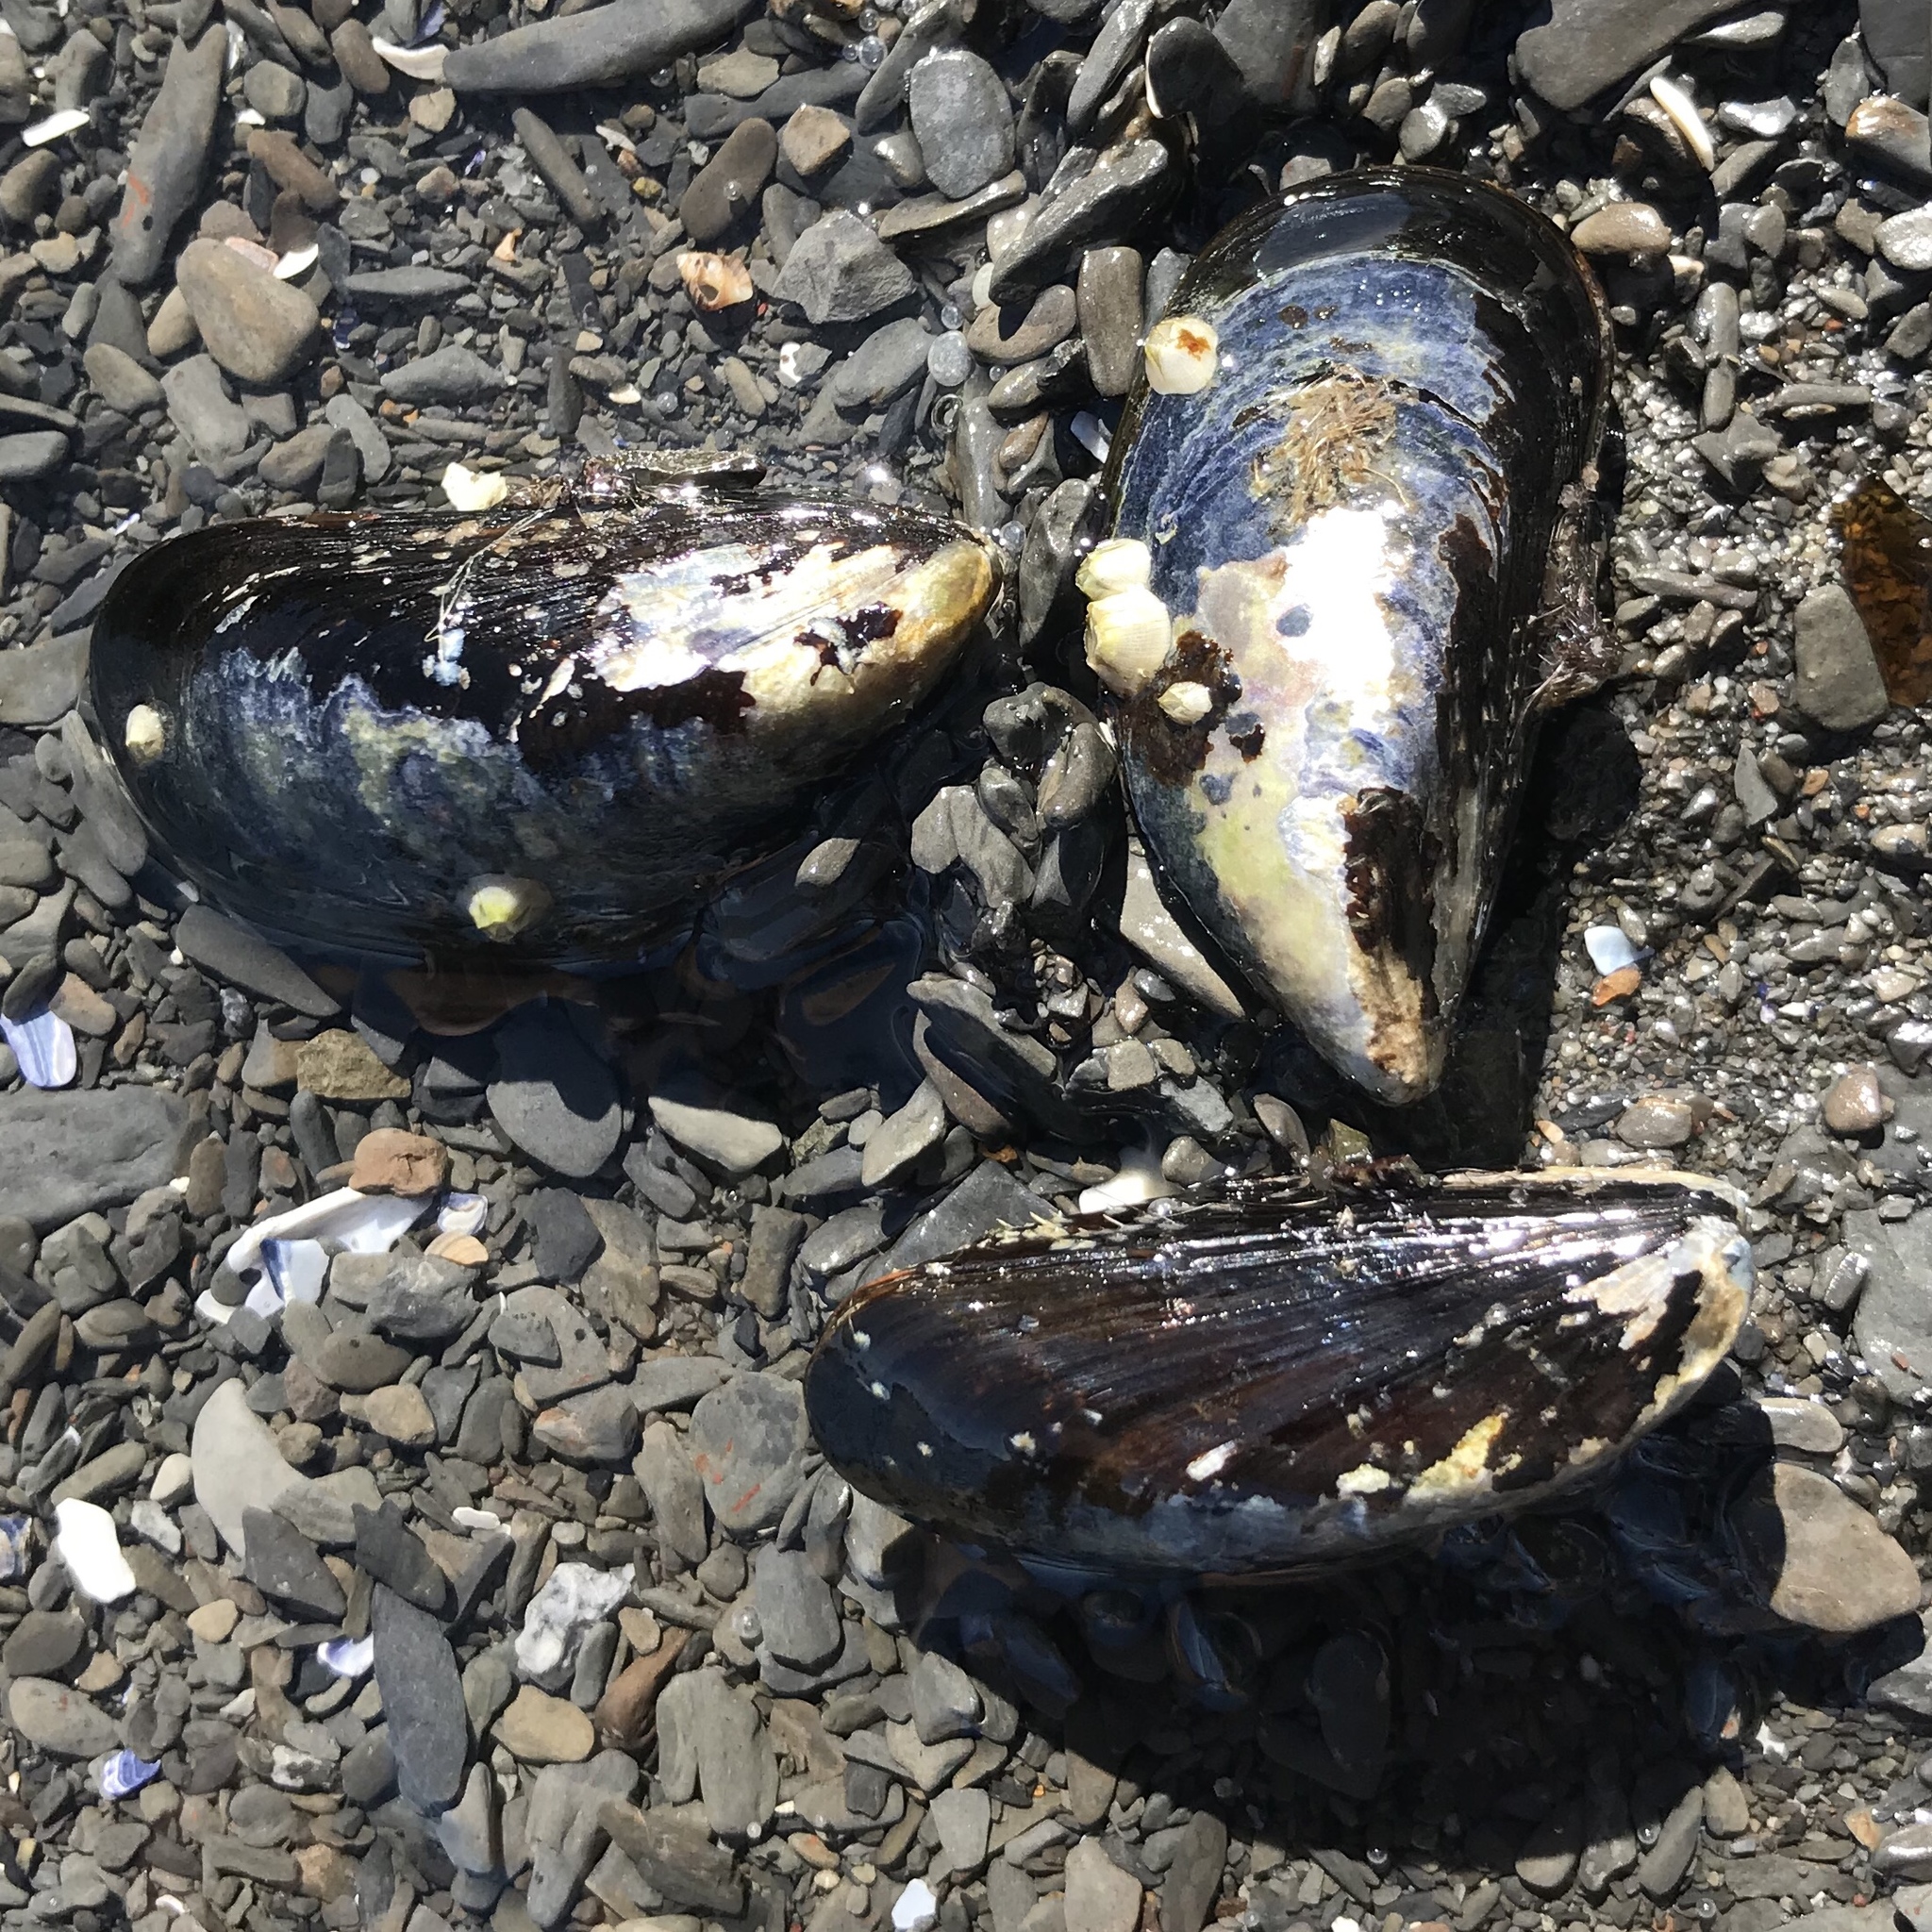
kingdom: Animalia
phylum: Mollusca
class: Bivalvia
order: Mytilida
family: Mytilidae
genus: Mytilus
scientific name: Mytilus edulis
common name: Blue mussel
